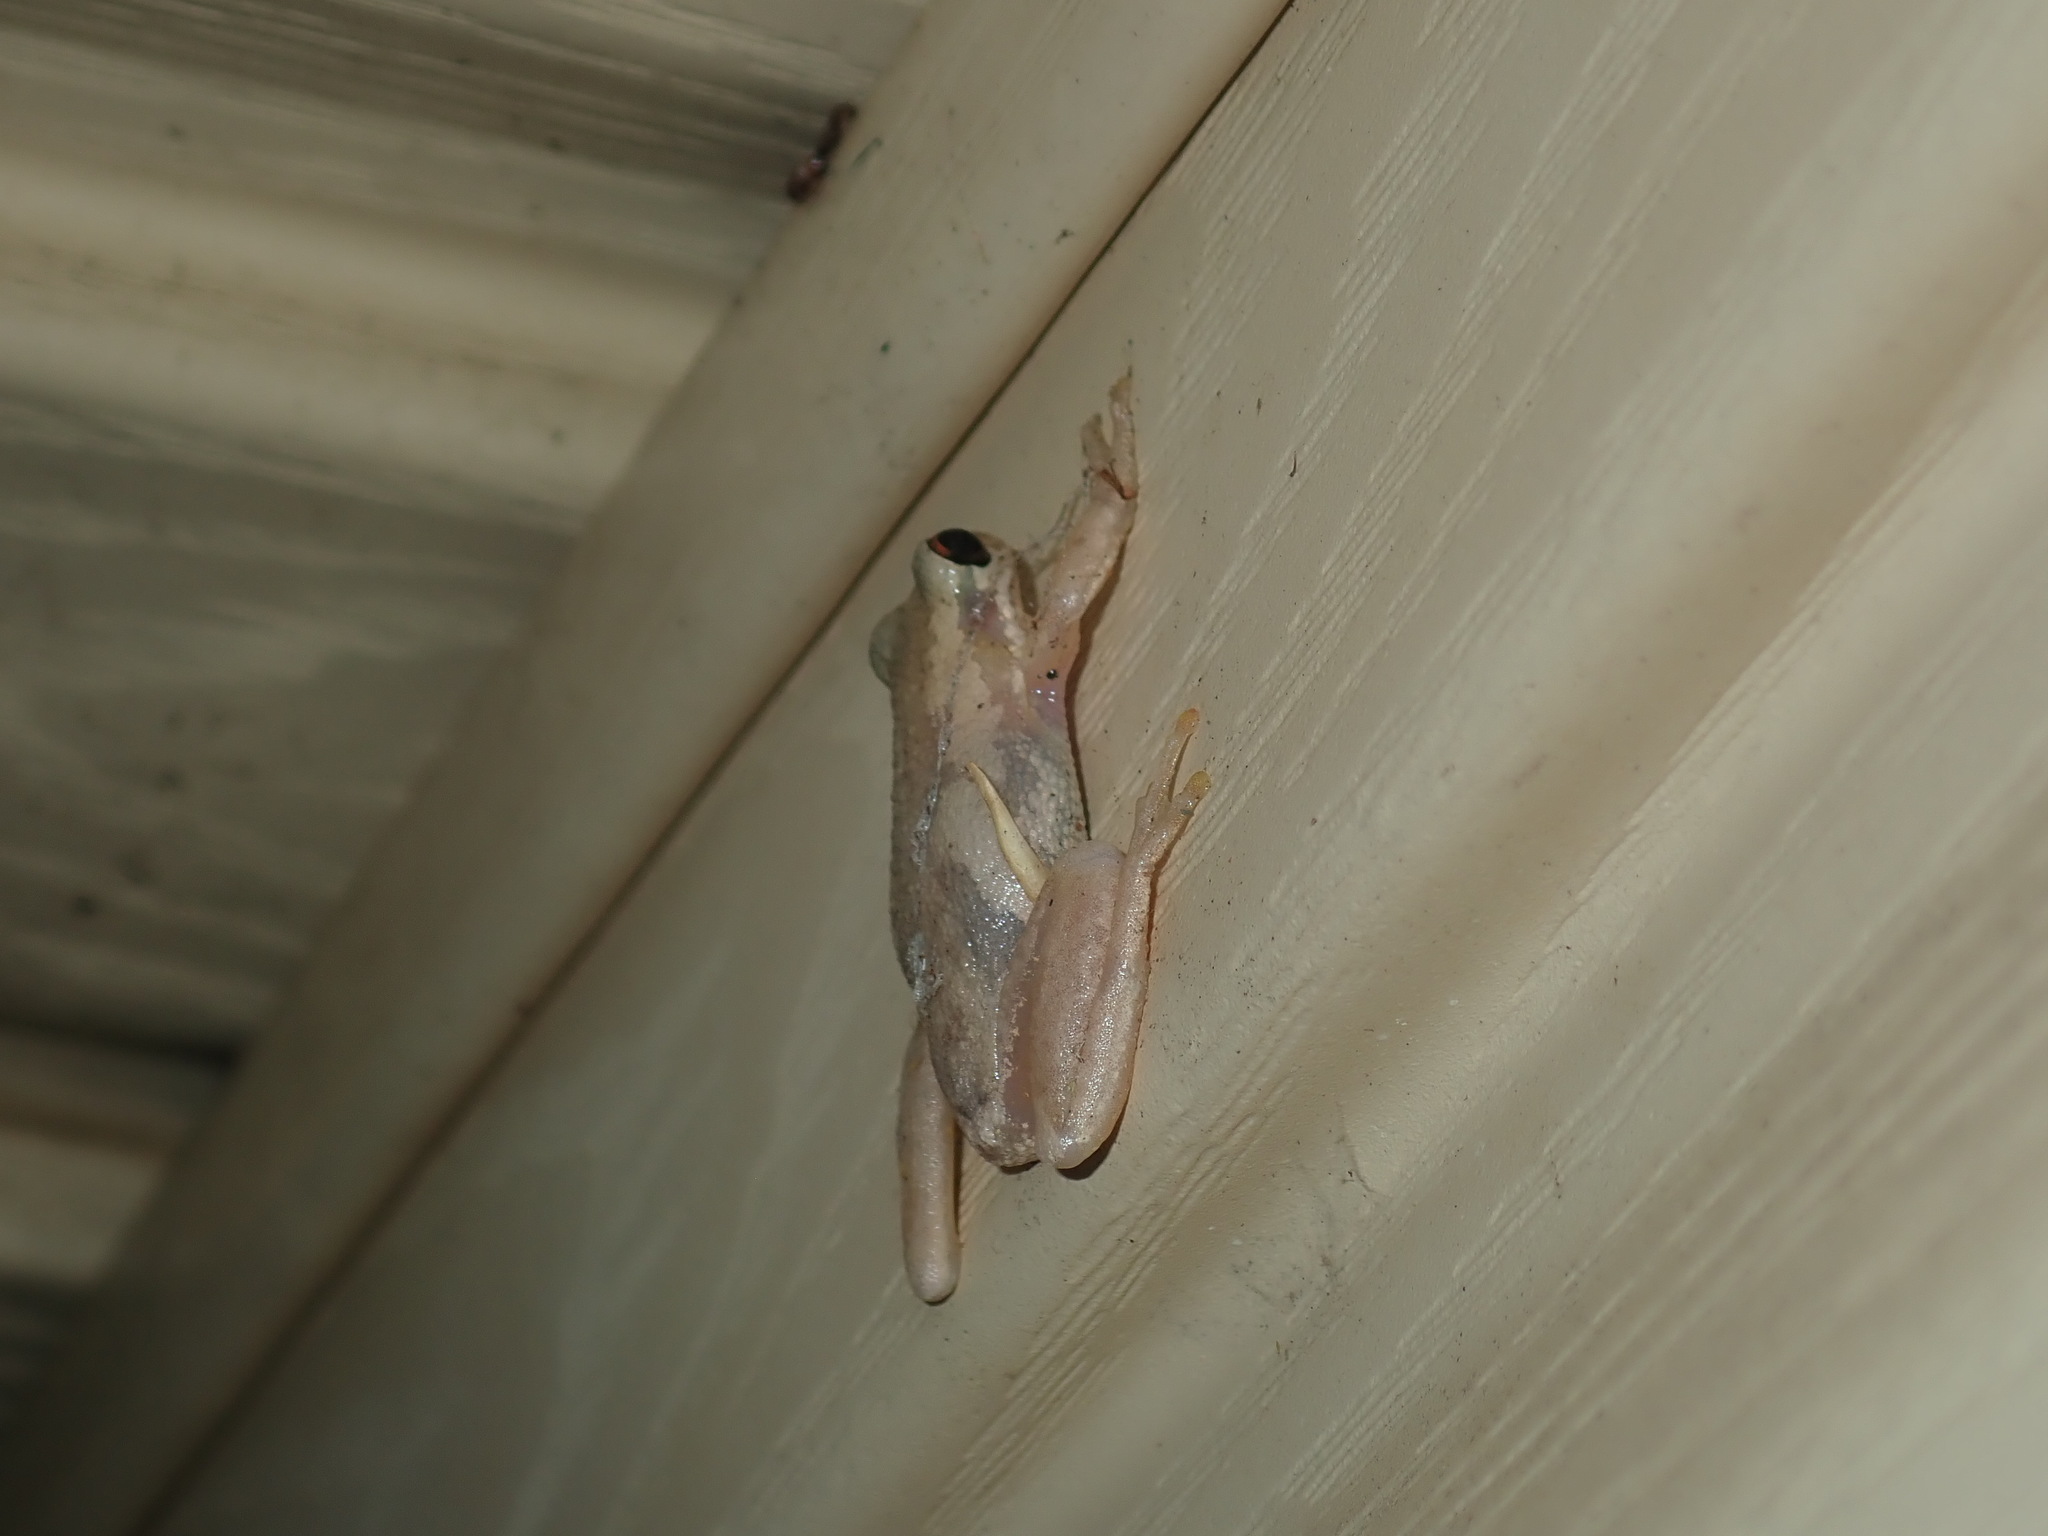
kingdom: Animalia
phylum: Chordata
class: Amphibia
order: Anura
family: Pelodryadidae
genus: Litoria
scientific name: Litoria dentata
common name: Bleating tree frog
